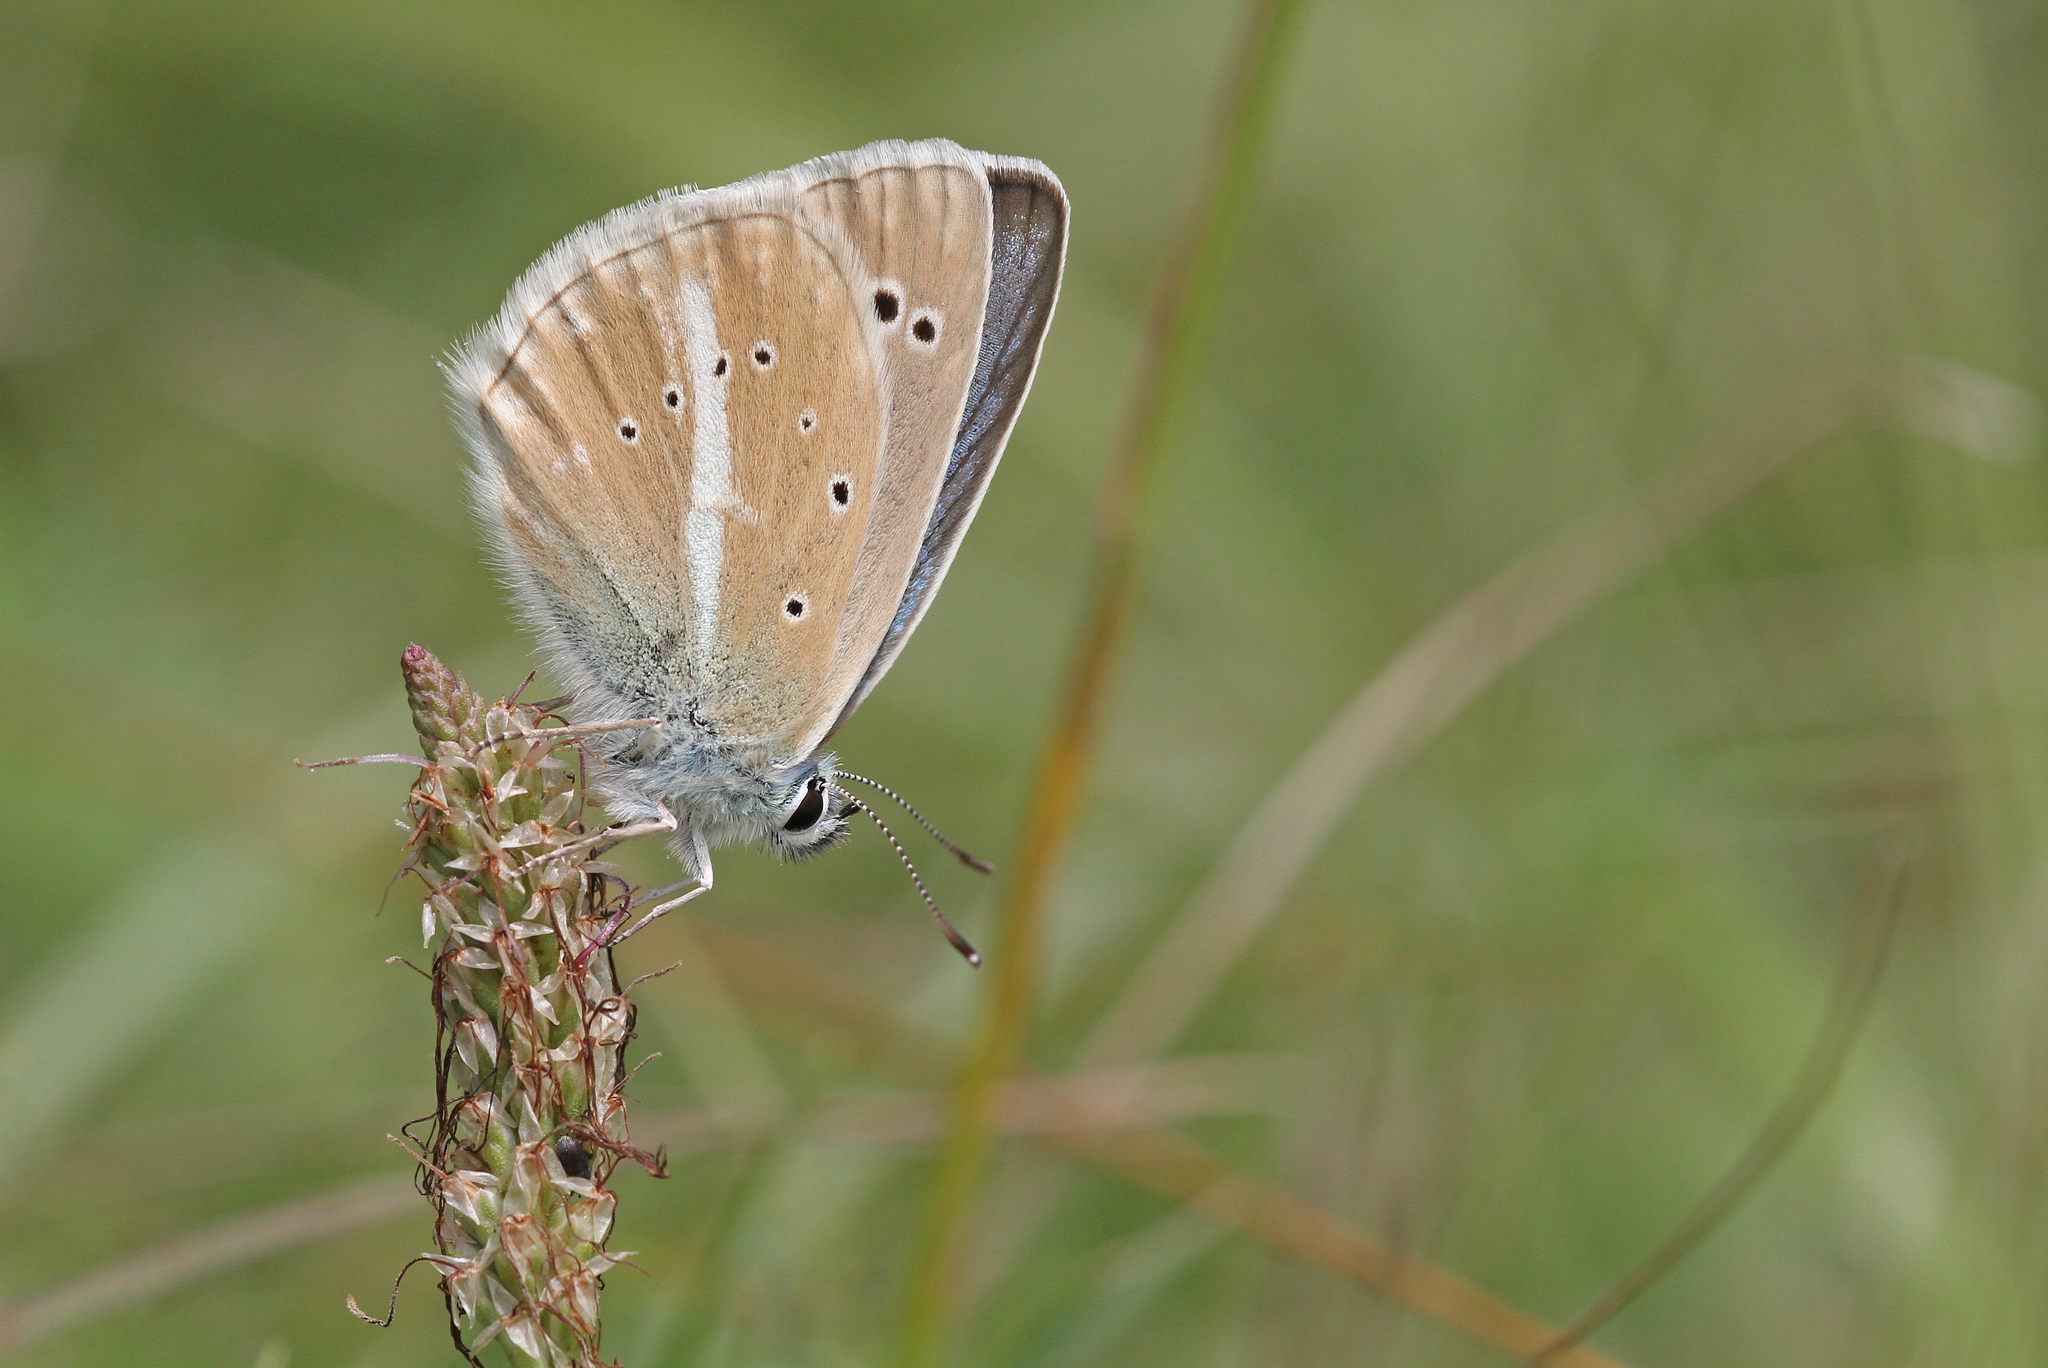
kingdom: Animalia
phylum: Arthropoda
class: Insecta
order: Lepidoptera
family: Lycaenidae
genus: Agrodiaetus
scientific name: Agrodiaetus damon
